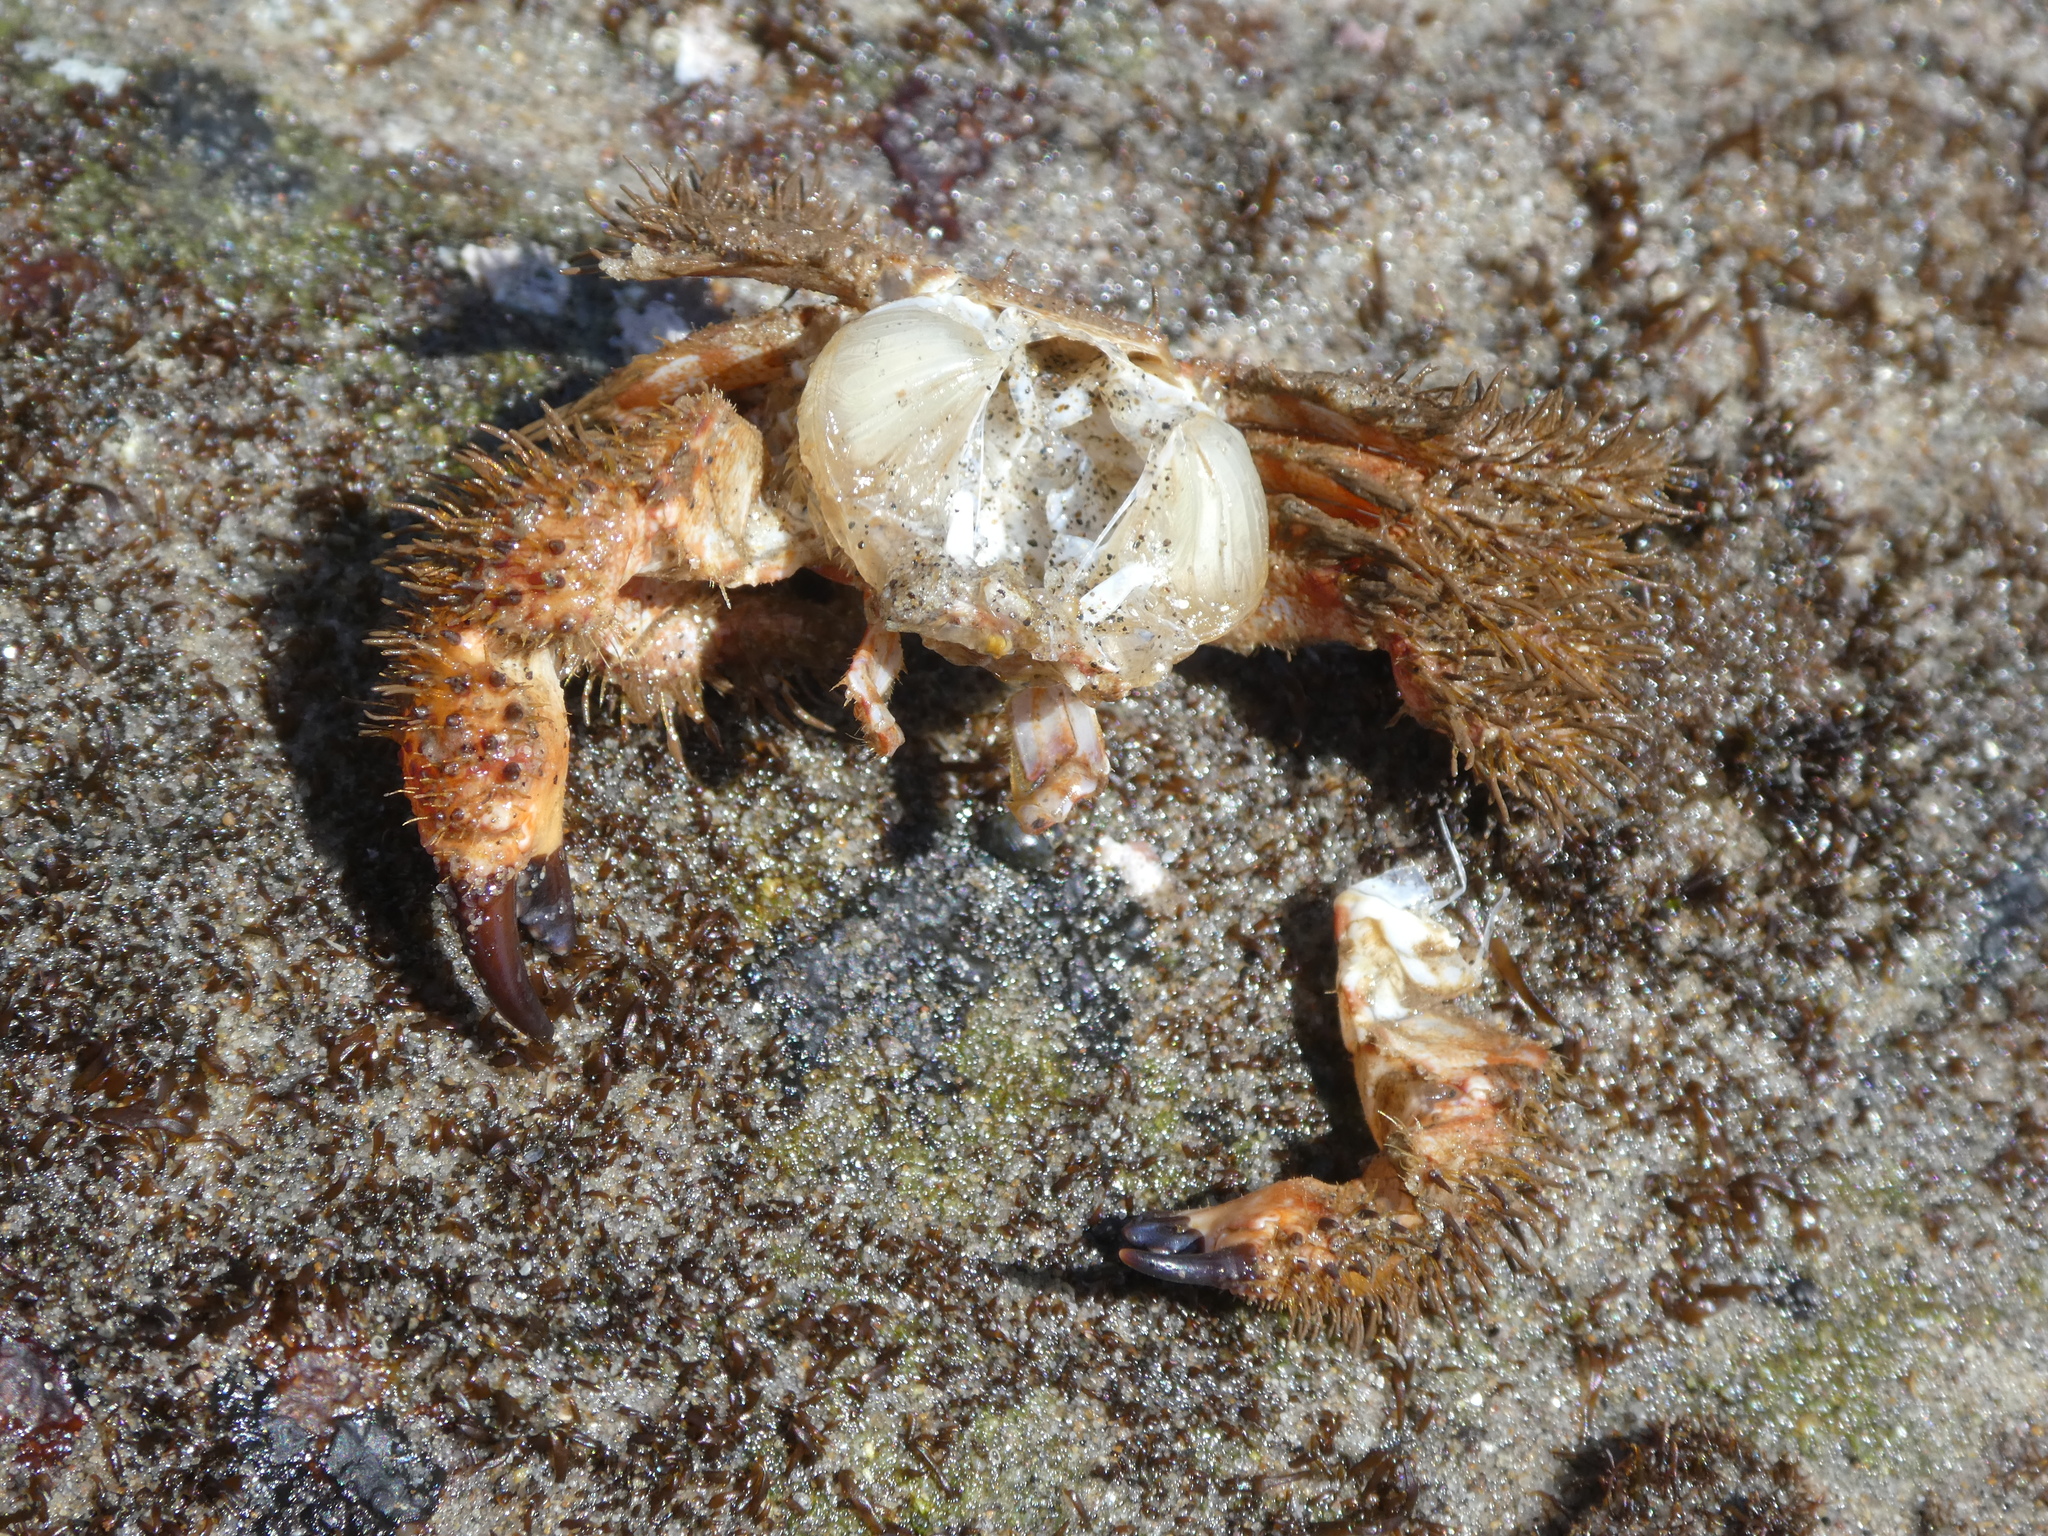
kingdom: Animalia
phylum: Arthropoda
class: Malacostraca
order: Decapoda
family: Pilumnidae
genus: Pilumnus
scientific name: Pilumnus spinohirsutus
